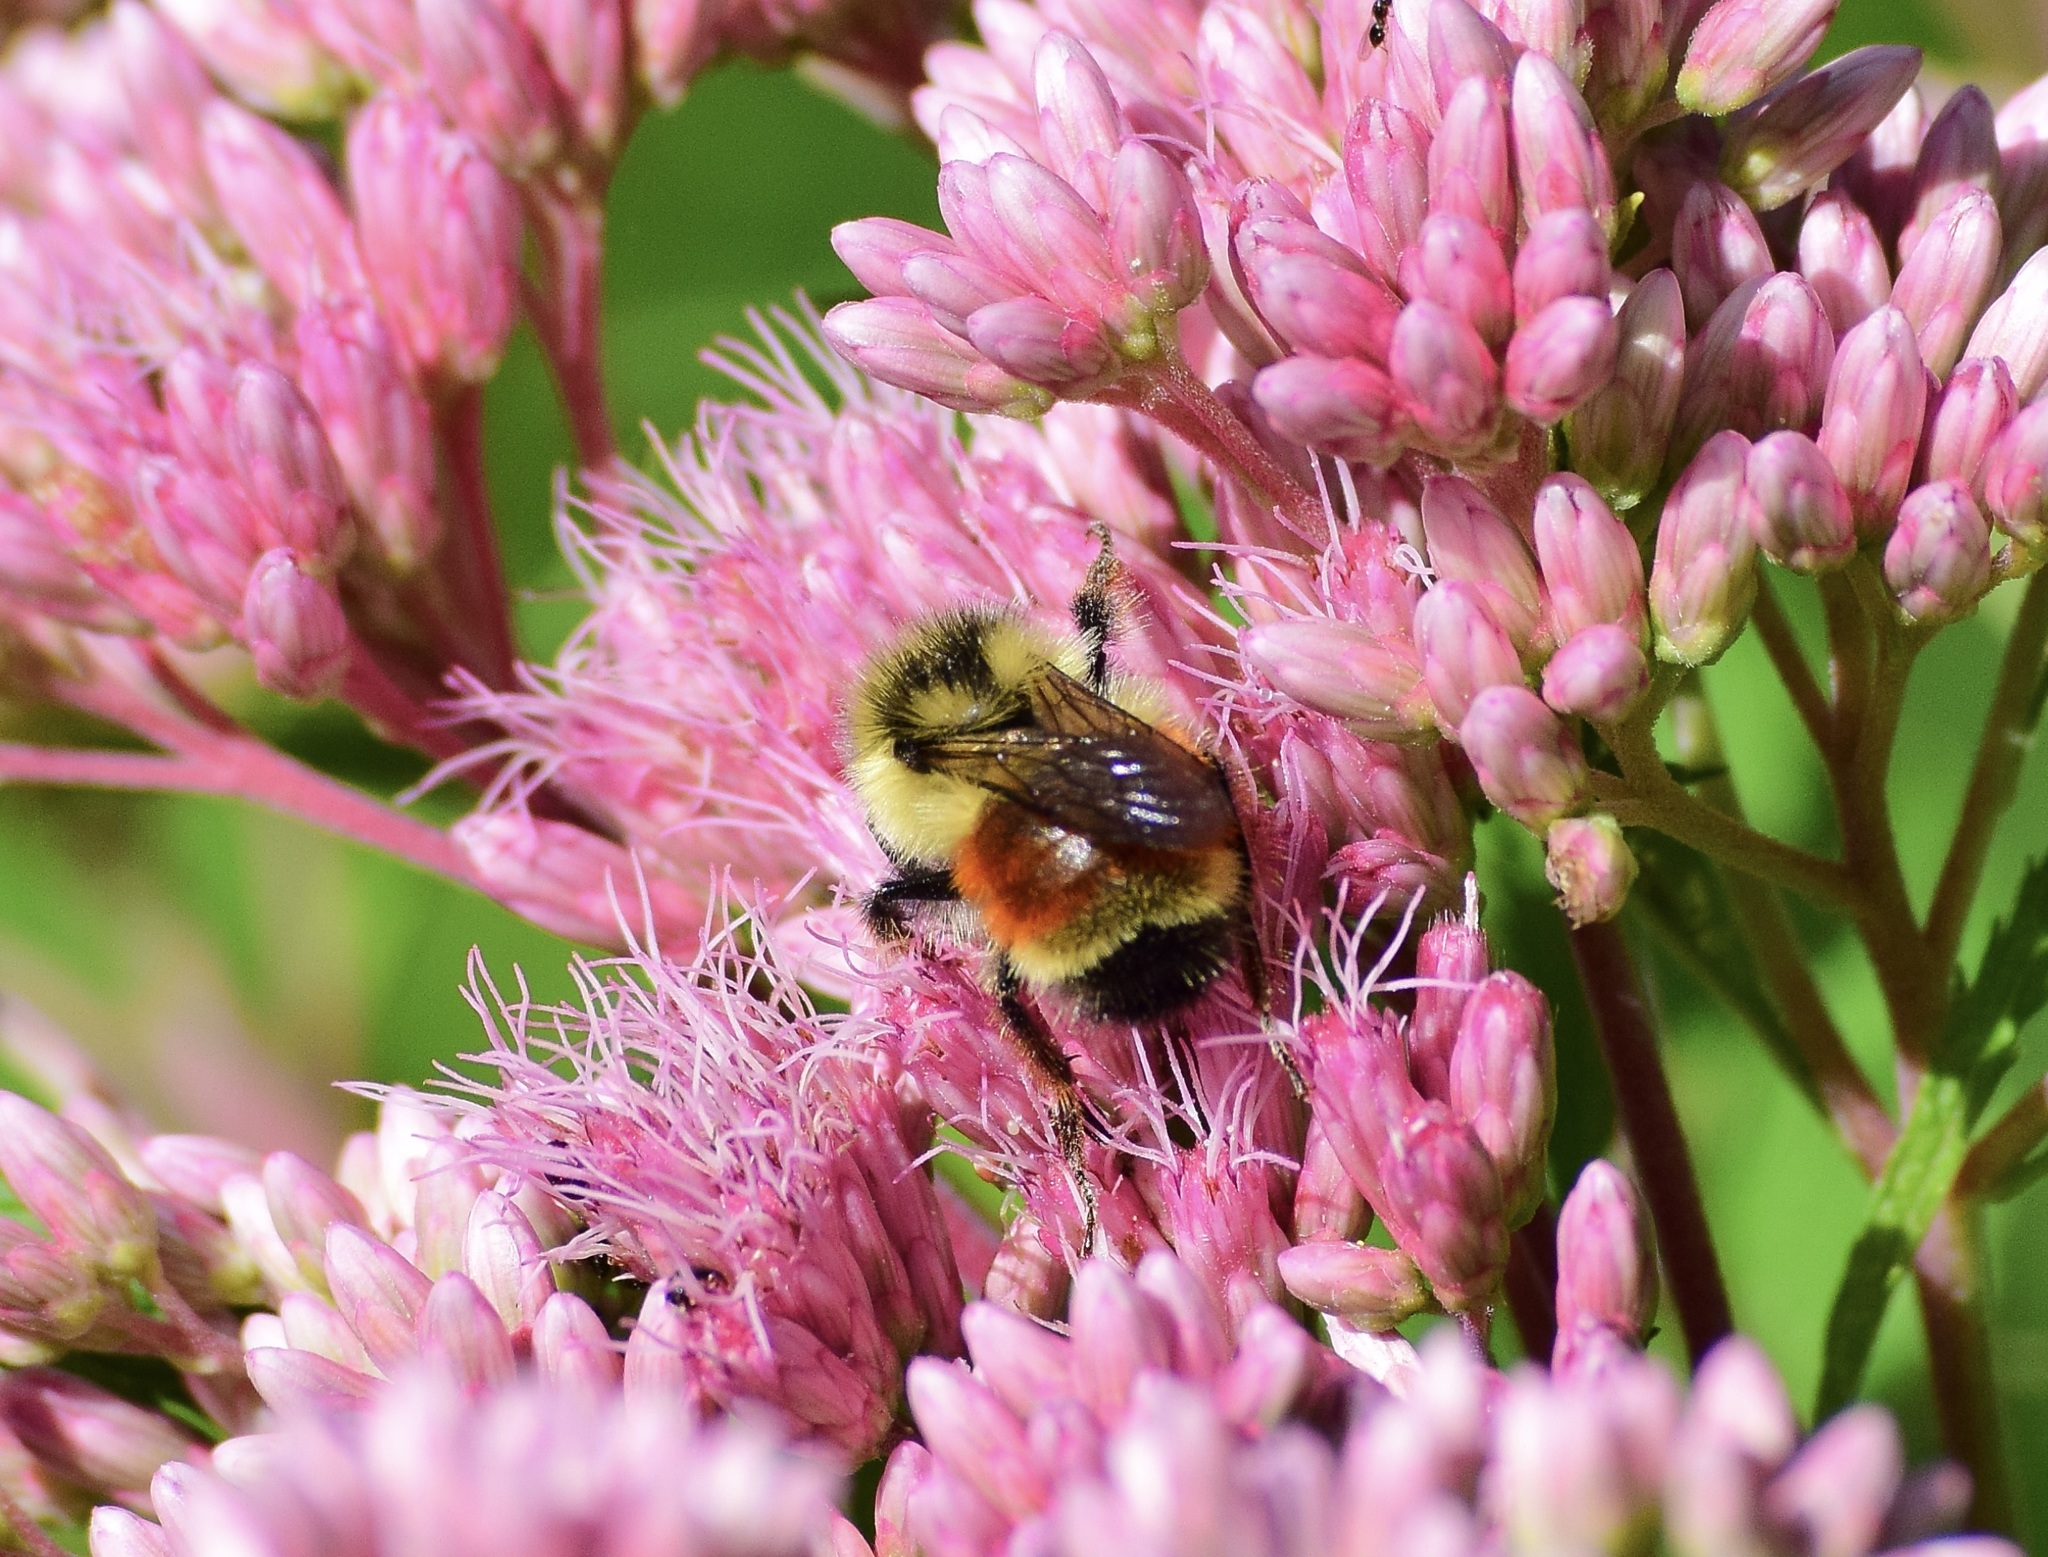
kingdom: Animalia
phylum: Arthropoda
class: Insecta
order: Hymenoptera
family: Apidae
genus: Bombus
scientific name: Bombus ternarius
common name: Tri-colored bumble bee
